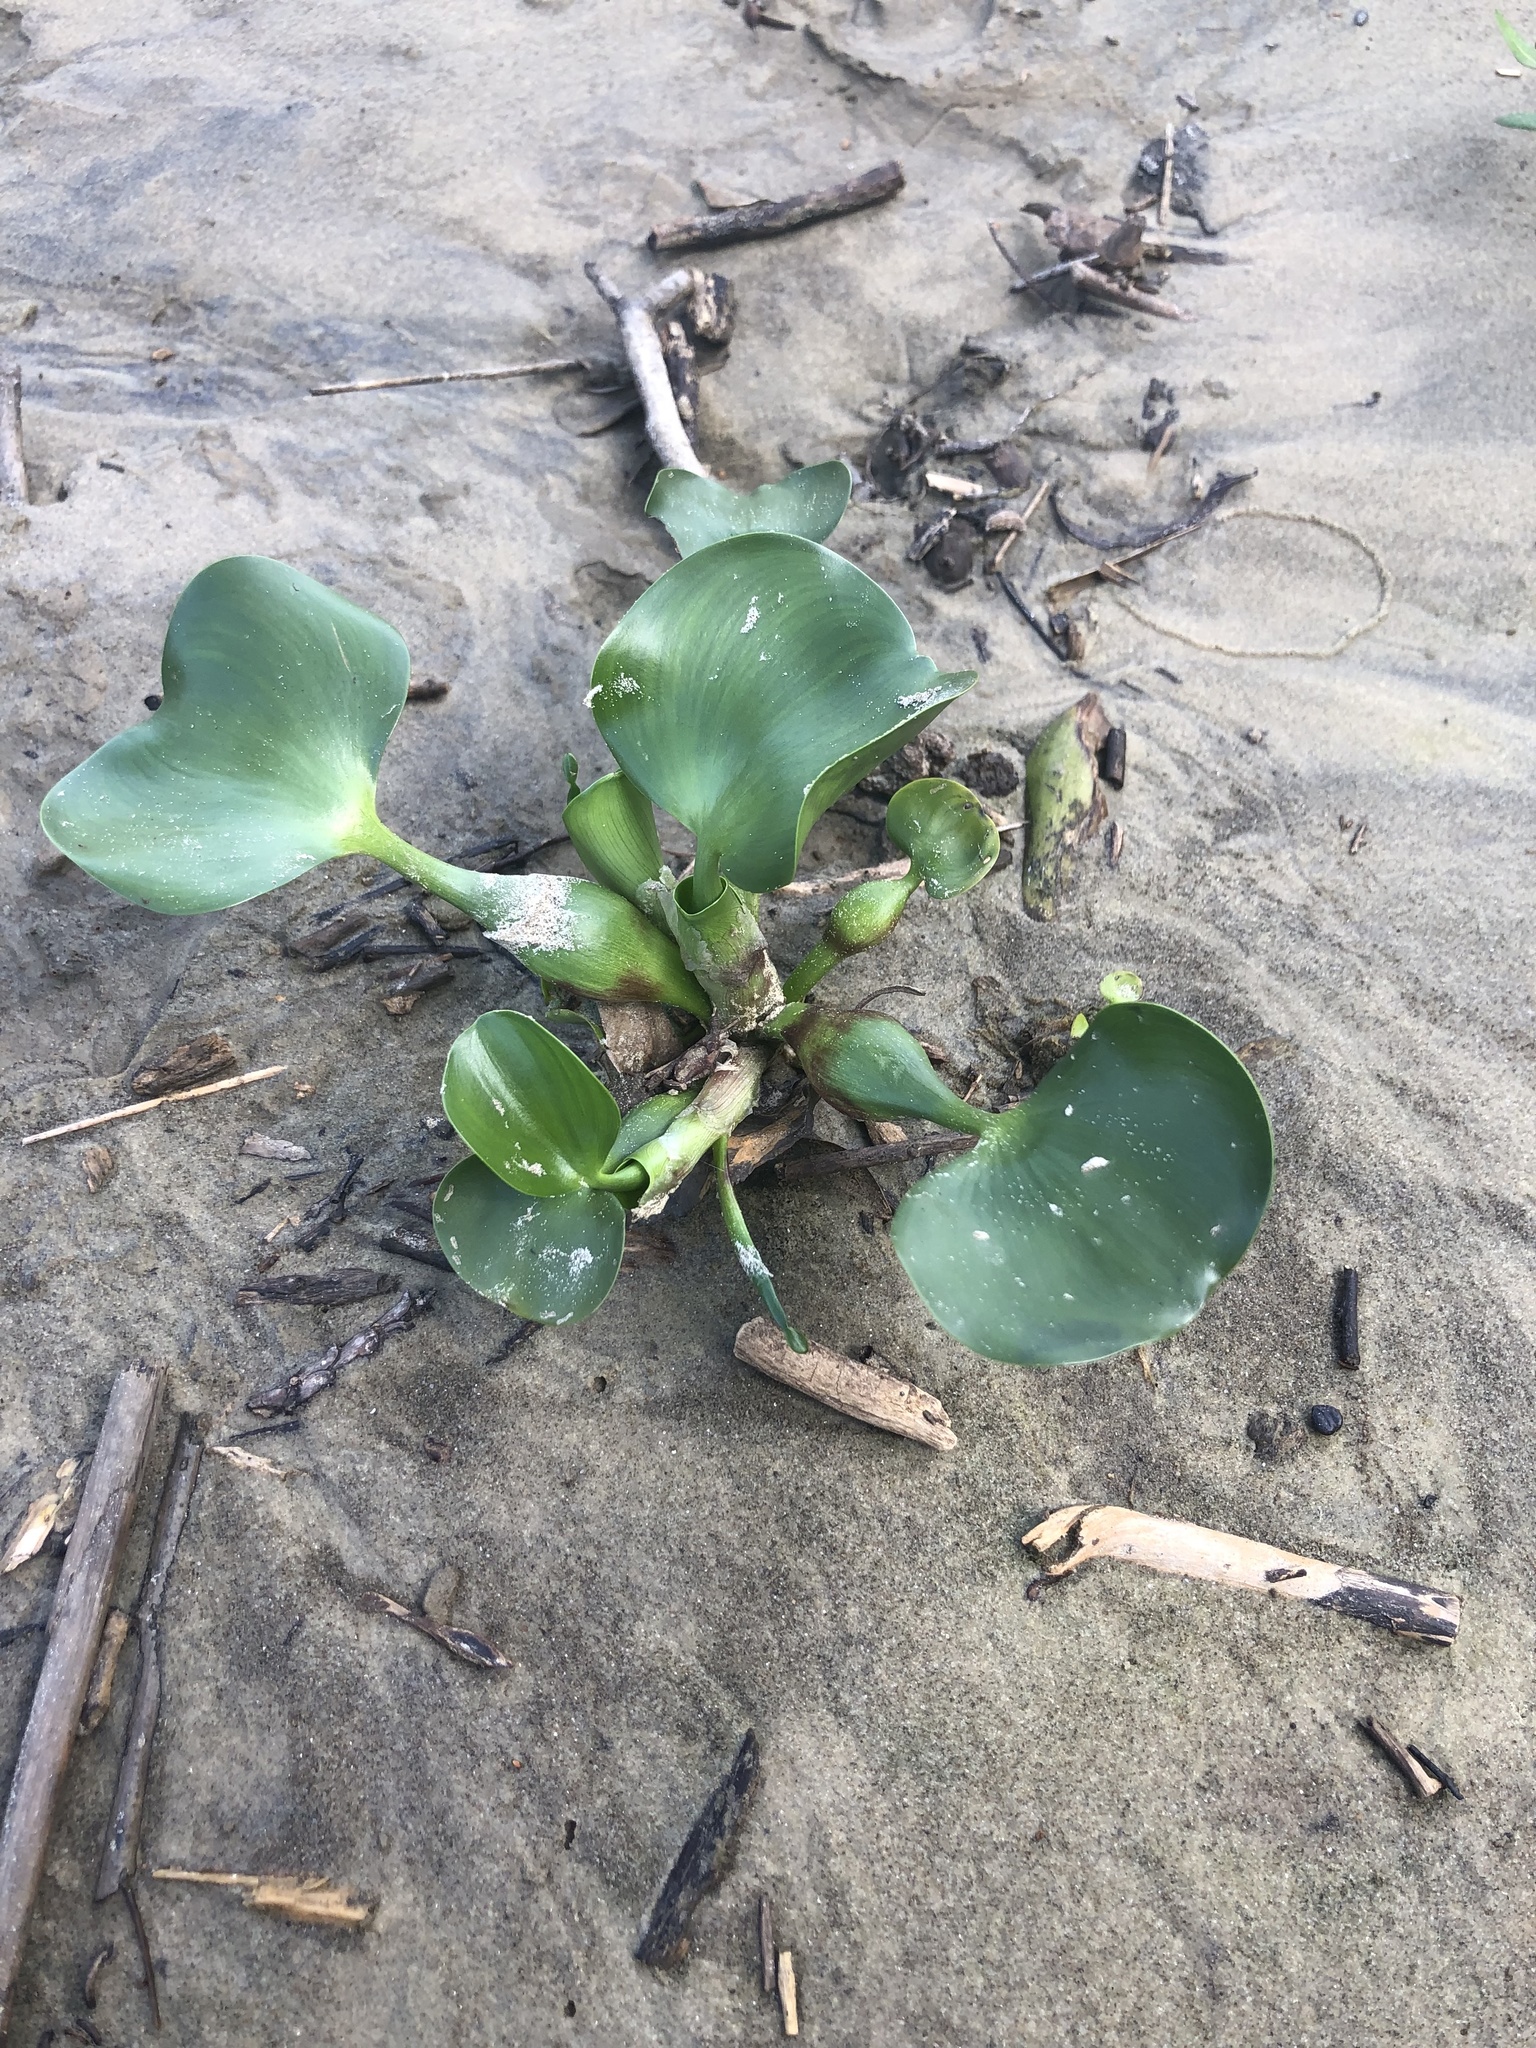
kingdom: Plantae
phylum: Tracheophyta
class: Liliopsida
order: Commelinales
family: Pontederiaceae
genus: Pontederia
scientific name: Pontederia crassipes
